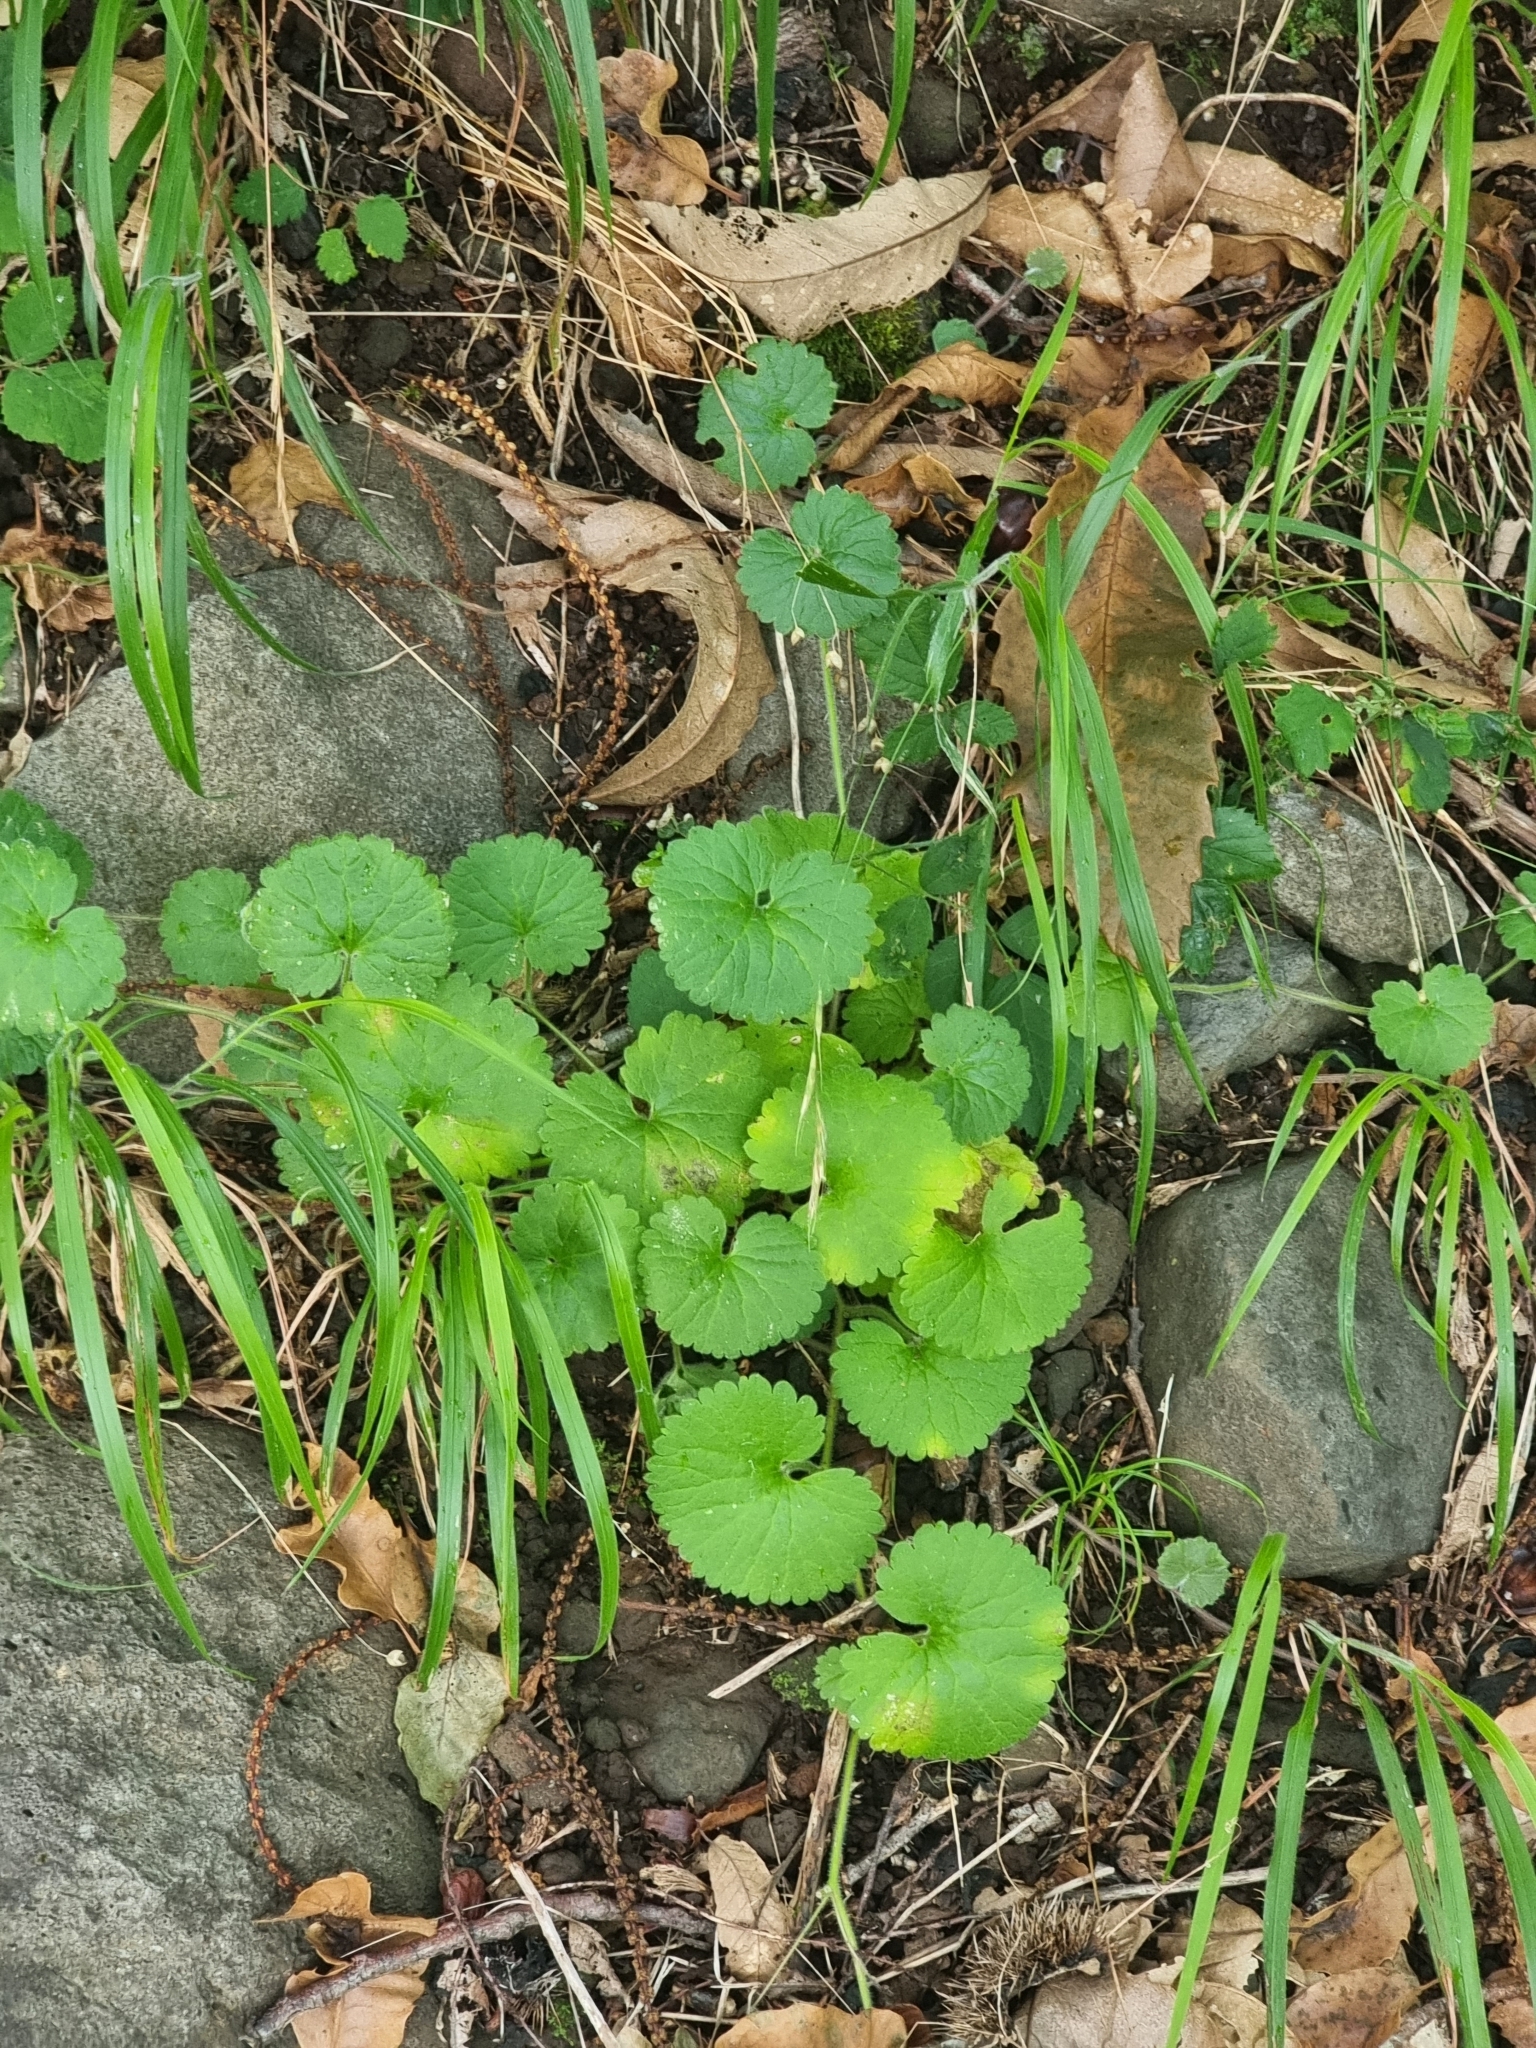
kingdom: Plantae
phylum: Tracheophyta
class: Magnoliopsida
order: Lamiales
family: Plantaginaceae
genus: Sibthorpia
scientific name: Sibthorpia peregrina
